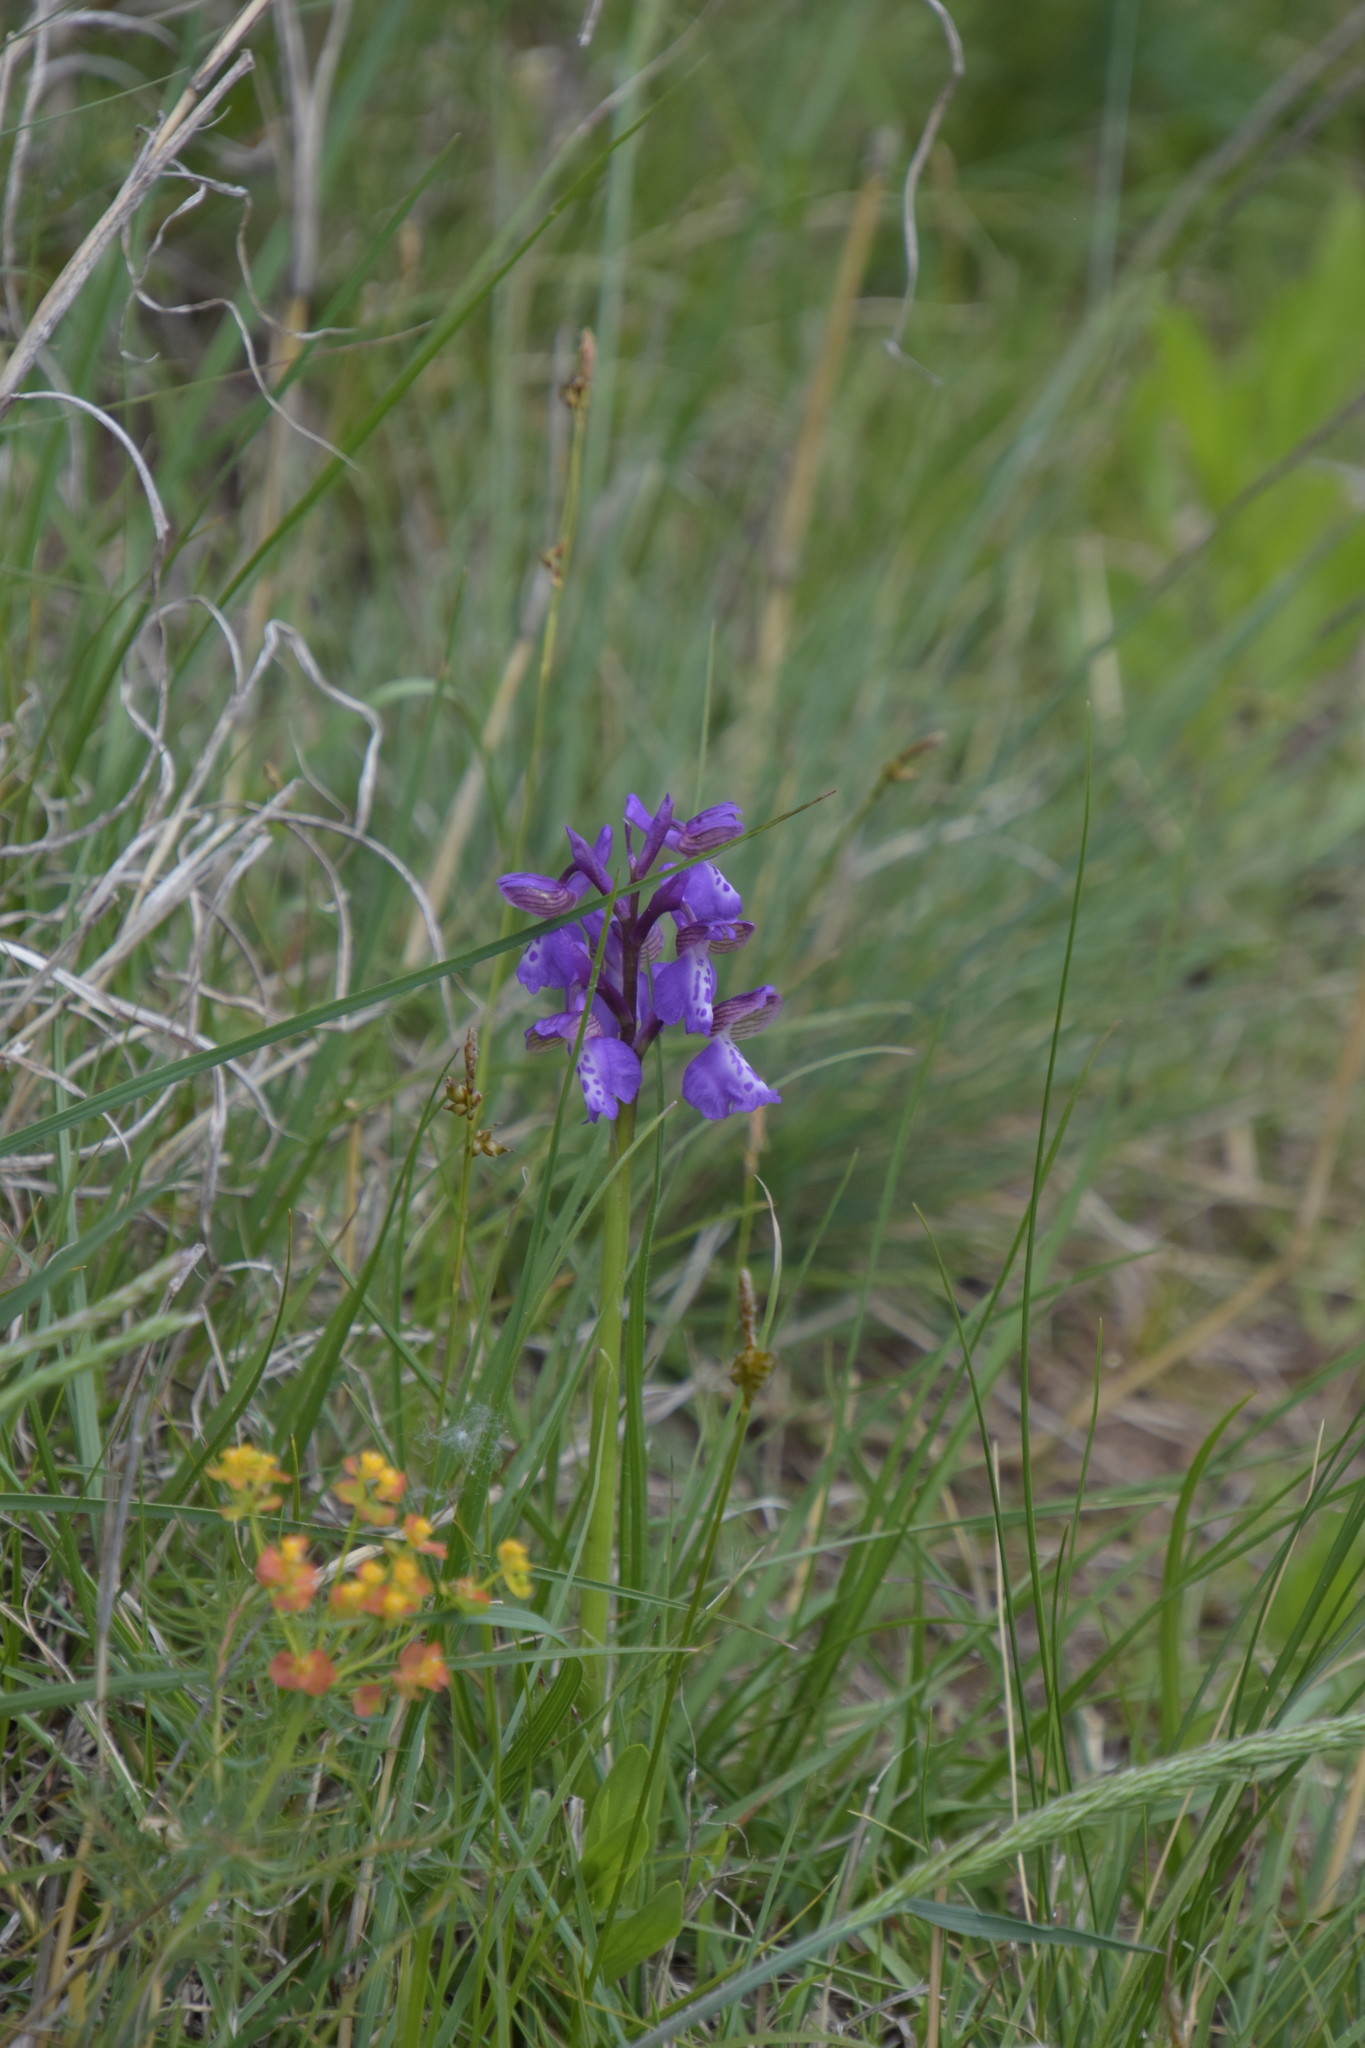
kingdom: Plantae
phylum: Tracheophyta
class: Liliopsida
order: Asparagales
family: Orchidaceae
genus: Anacamptis
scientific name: Anacamptis morio
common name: Green-winged orchid
